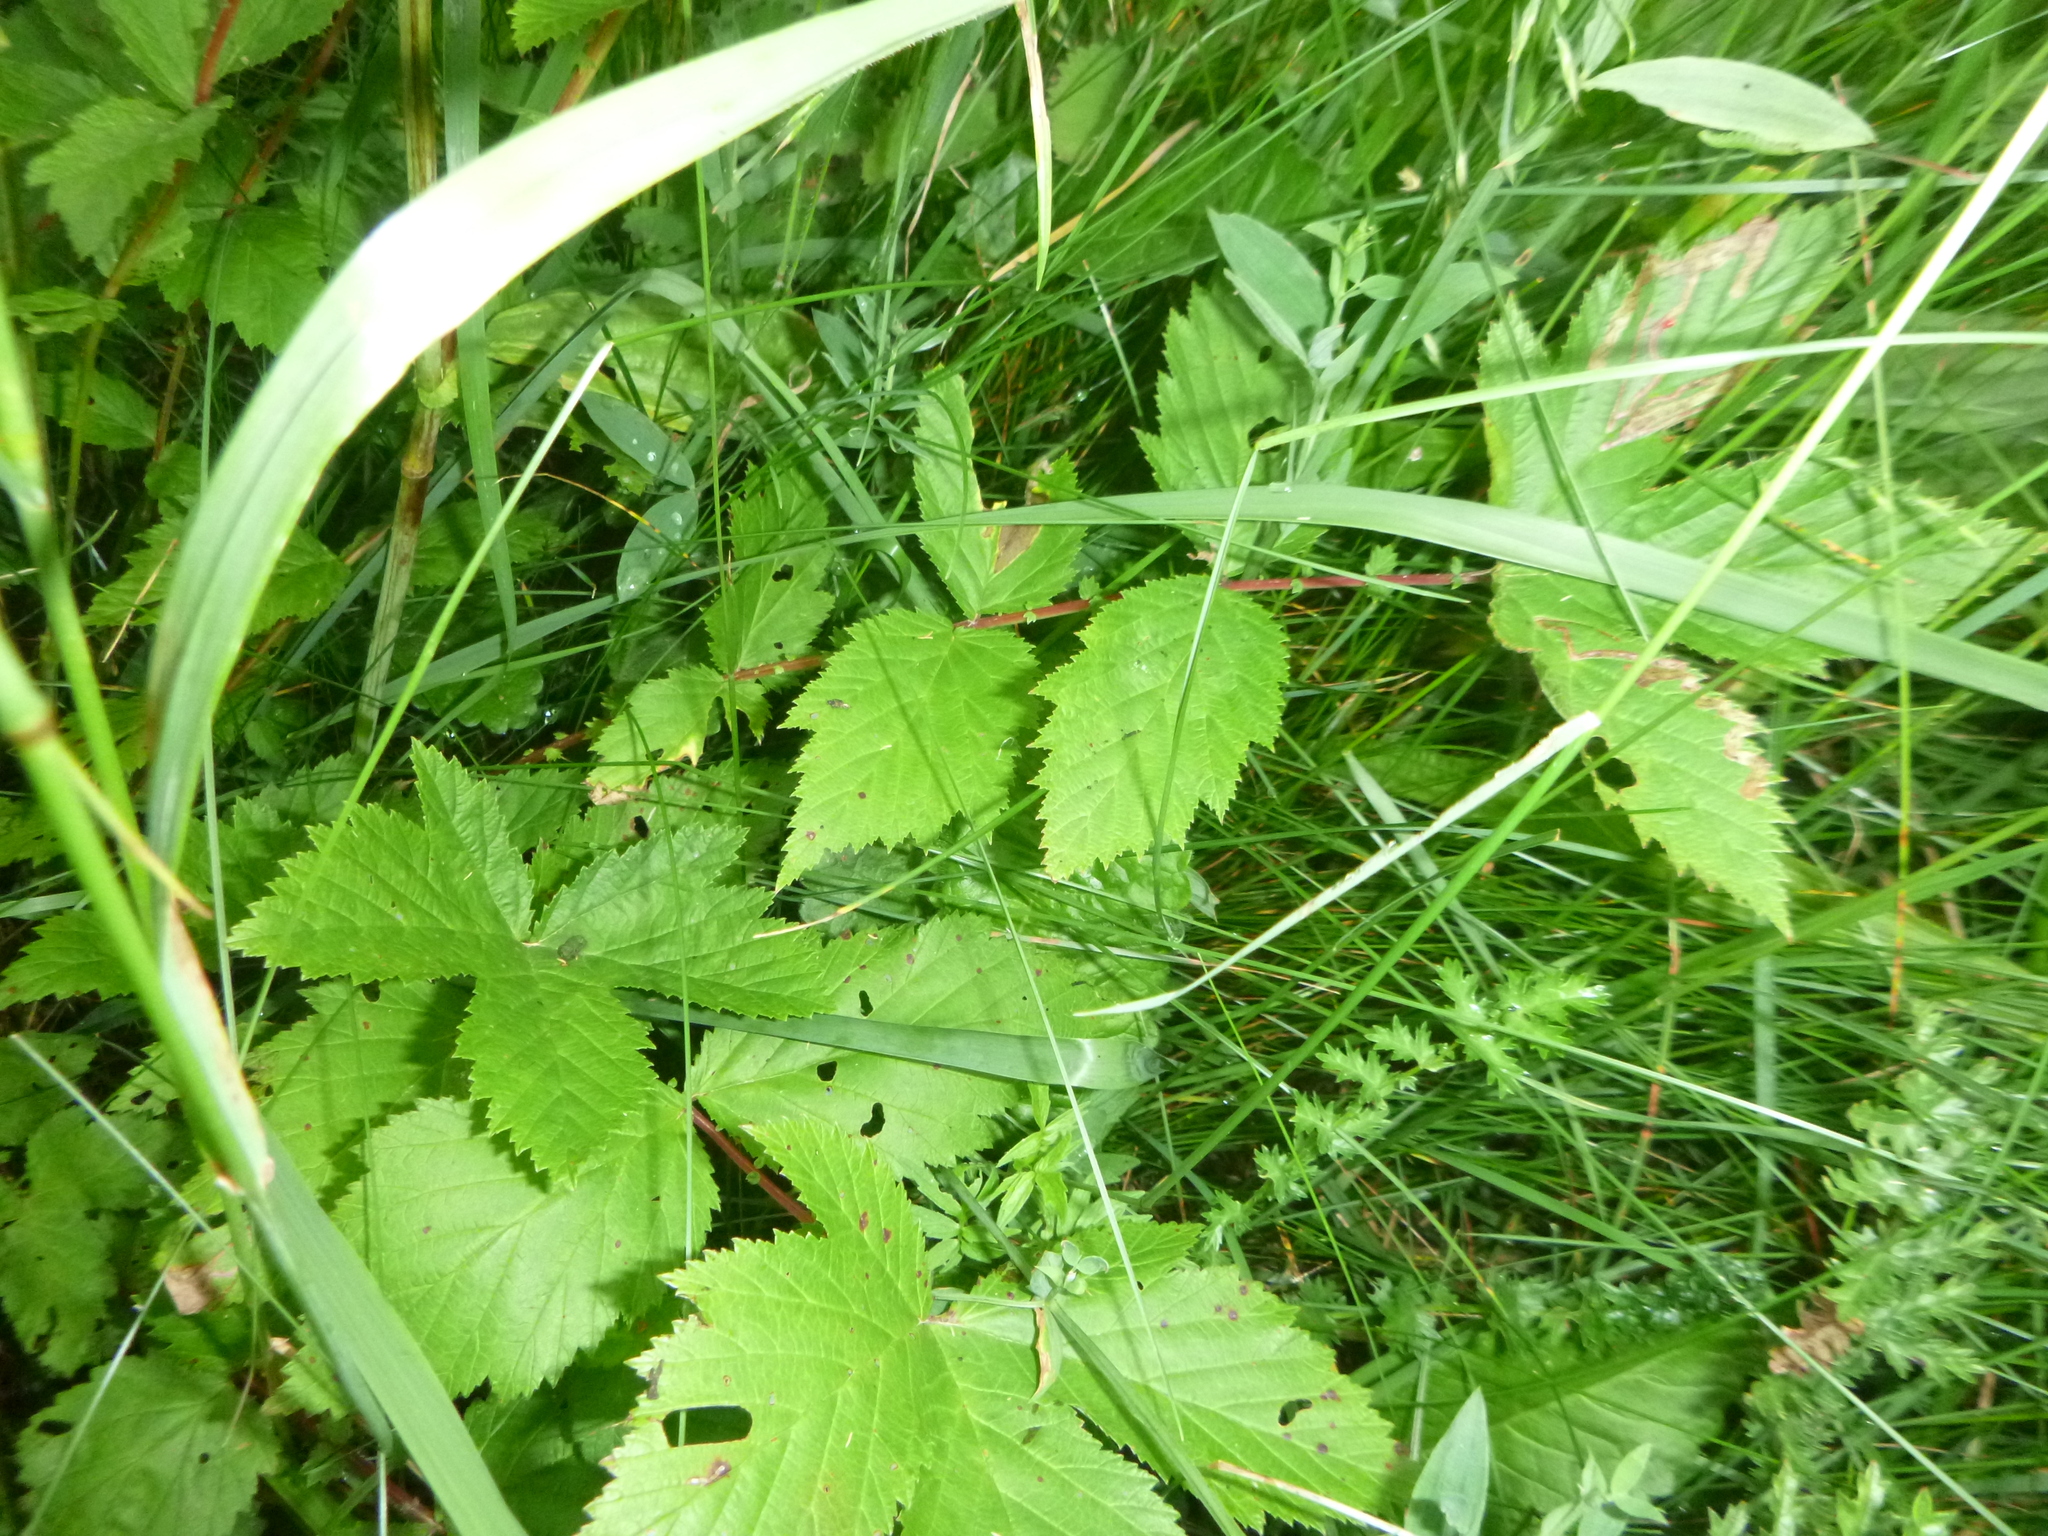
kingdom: Plantae
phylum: Tracheophyta
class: Magnoliopsida
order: Rosales
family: Rosaceae
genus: Filipendula
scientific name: Filipendula ulmaria
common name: Meadowsweet
